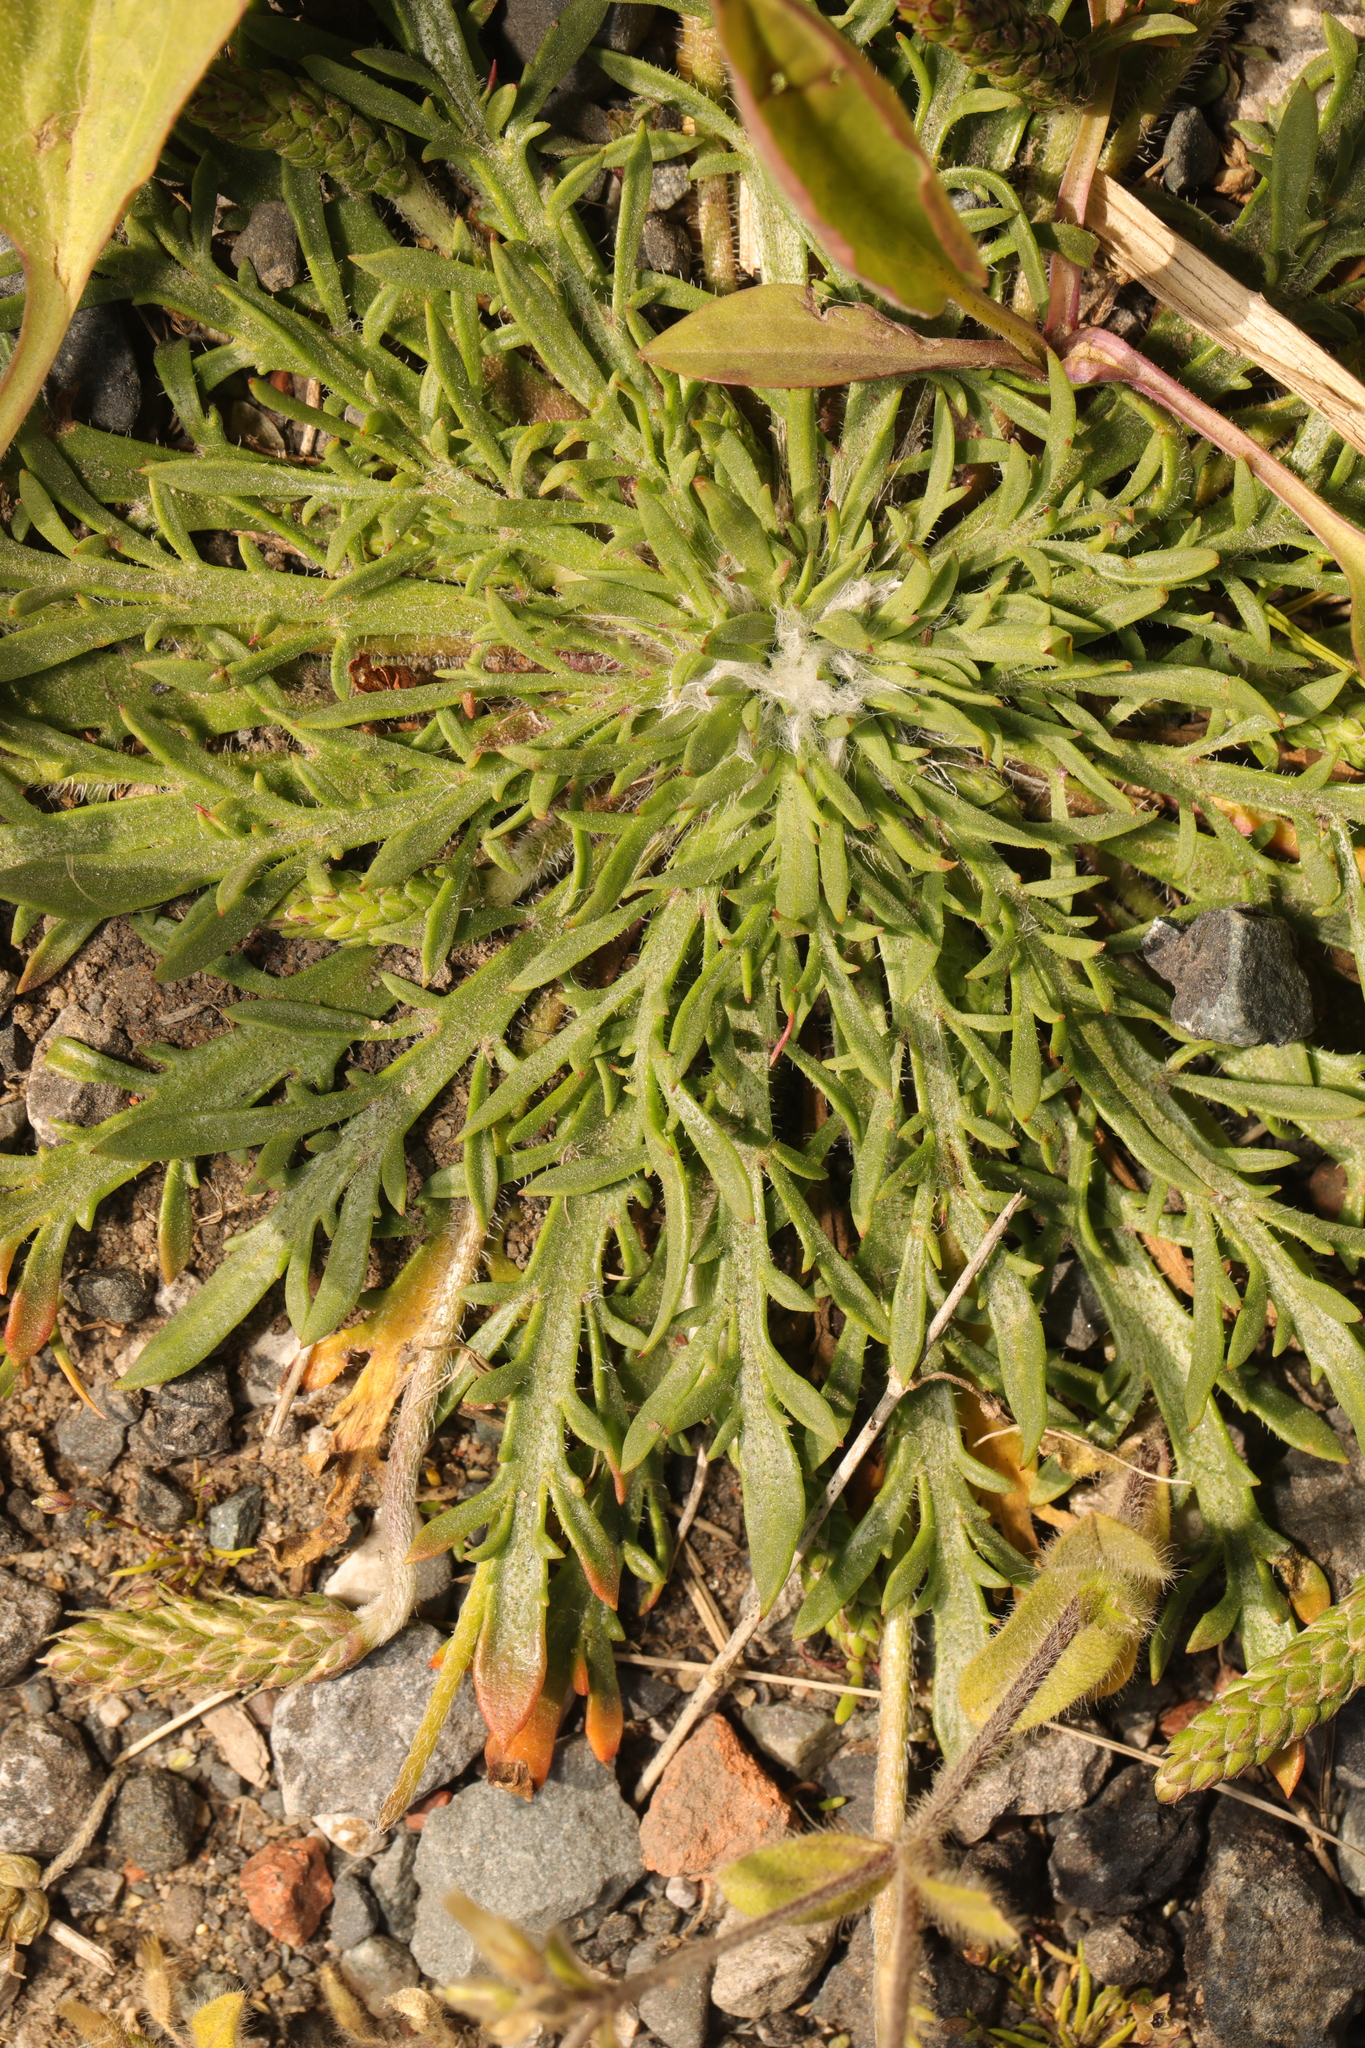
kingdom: Plantae
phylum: Tracheophyta
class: Magnoliopsida
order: Lamiales
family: Plantaginaceae
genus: Plantago
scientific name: Plantago coronopus
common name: Buck's-horn plantain
